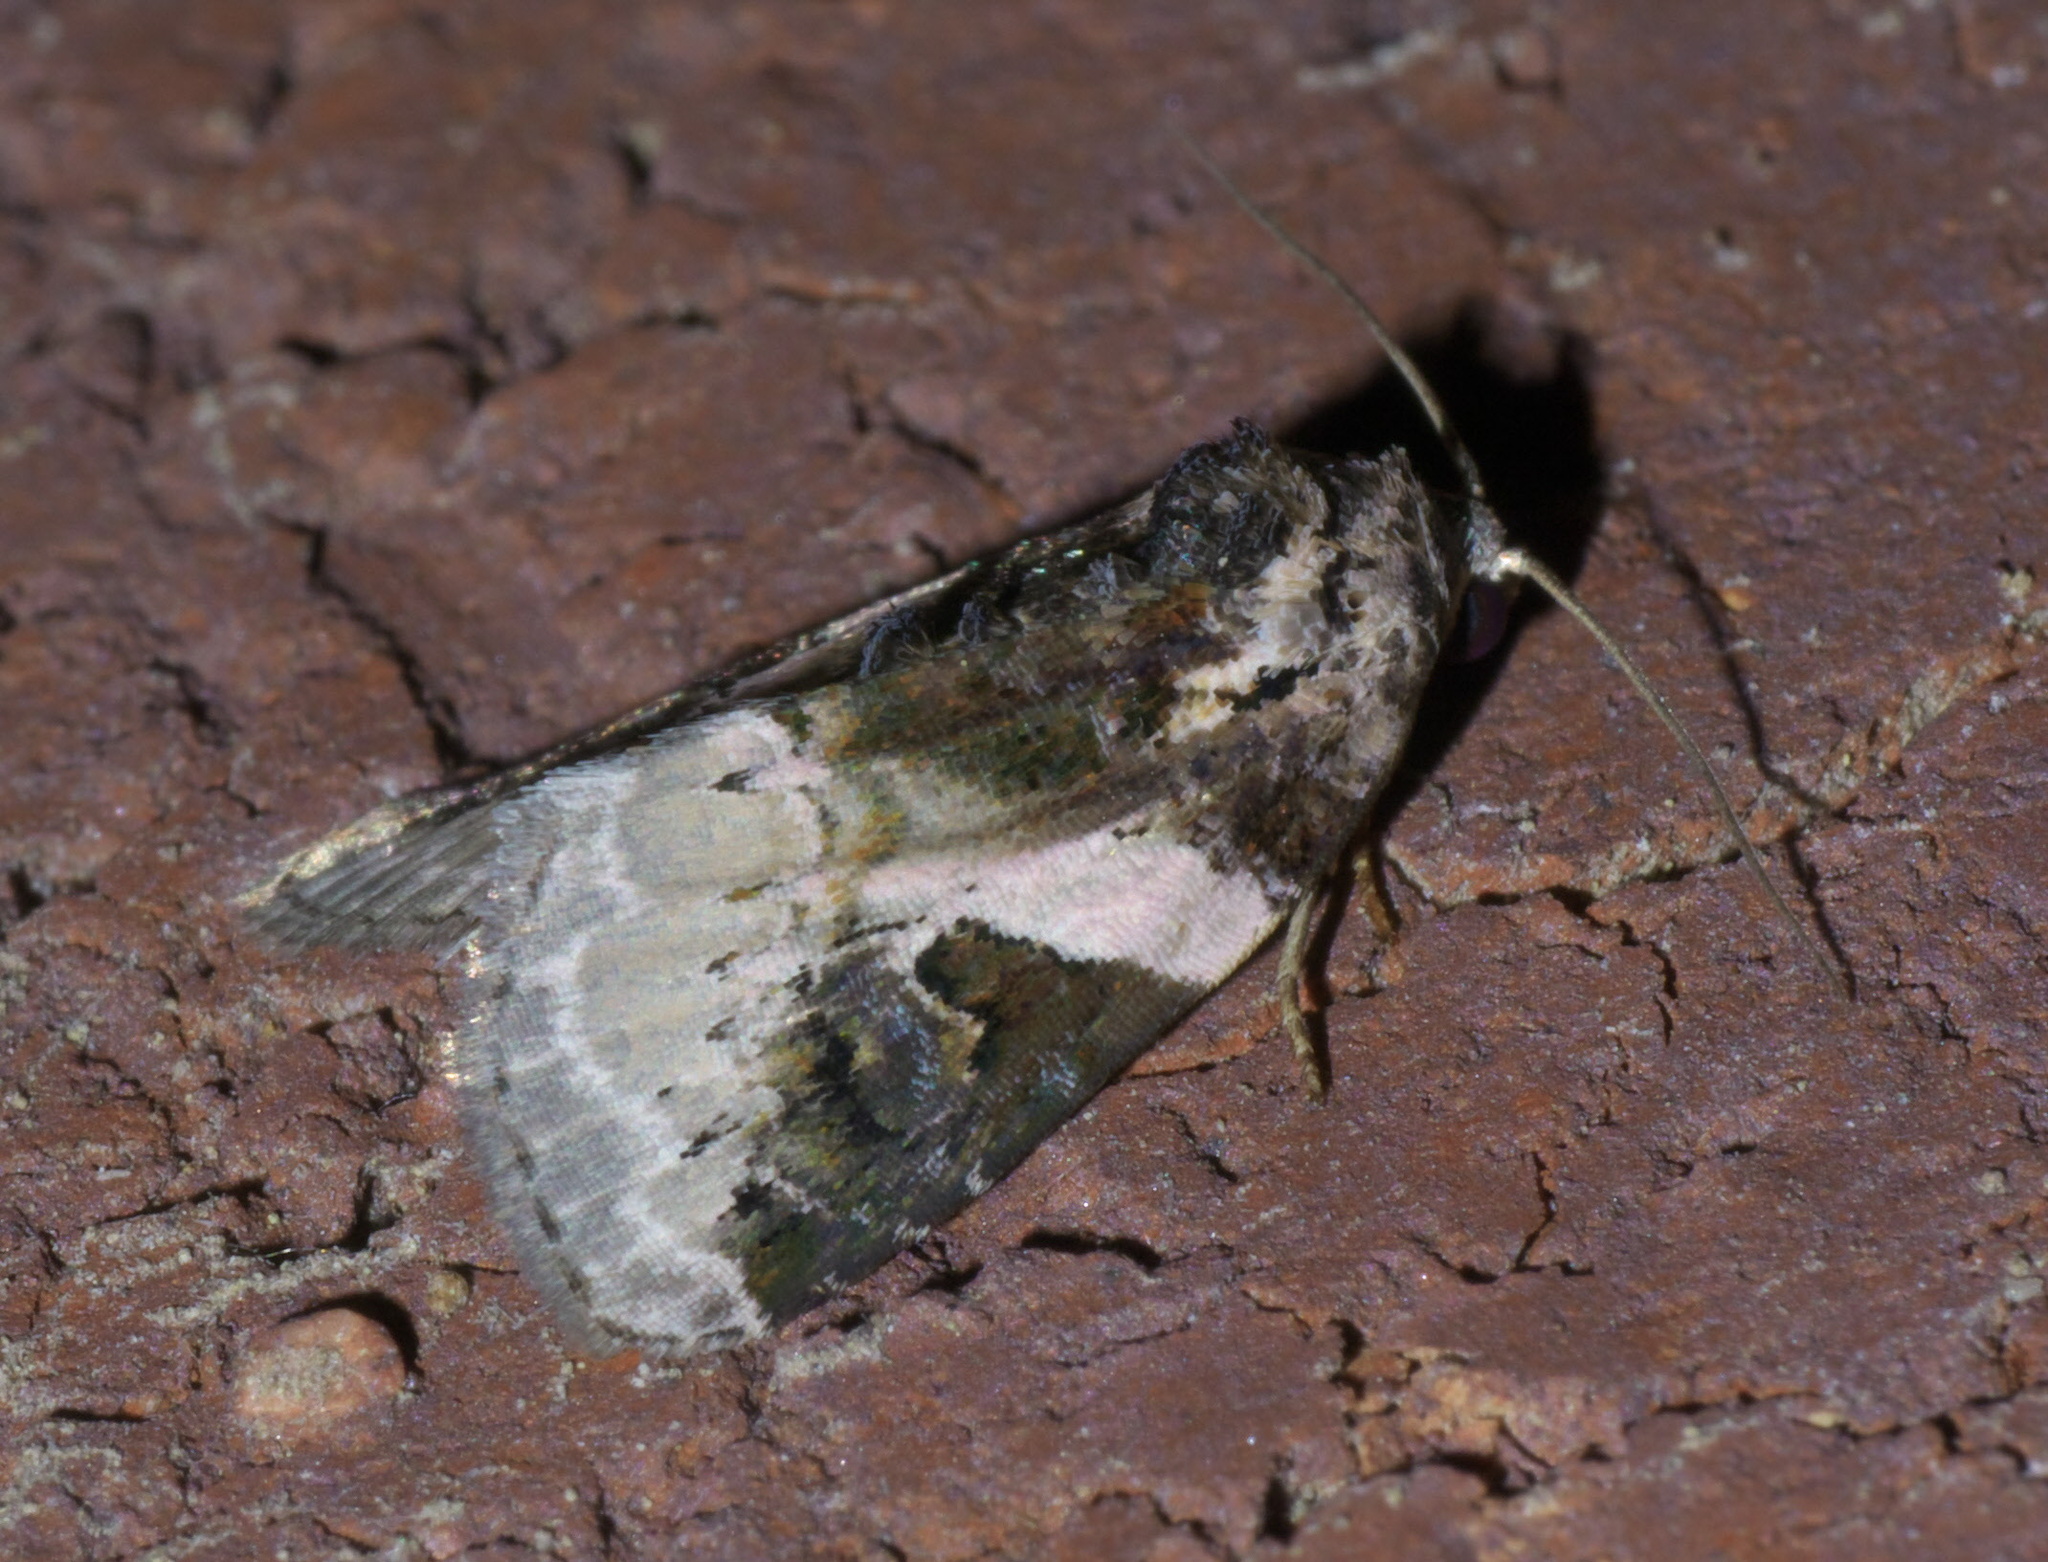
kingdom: Animalia
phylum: Arthropoda
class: Insecta
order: Lepidoptera
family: Noctuidae
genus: Pseudeustrotia
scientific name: Pseudeustrotia carneola
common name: Pink-barred lithacodia moth
